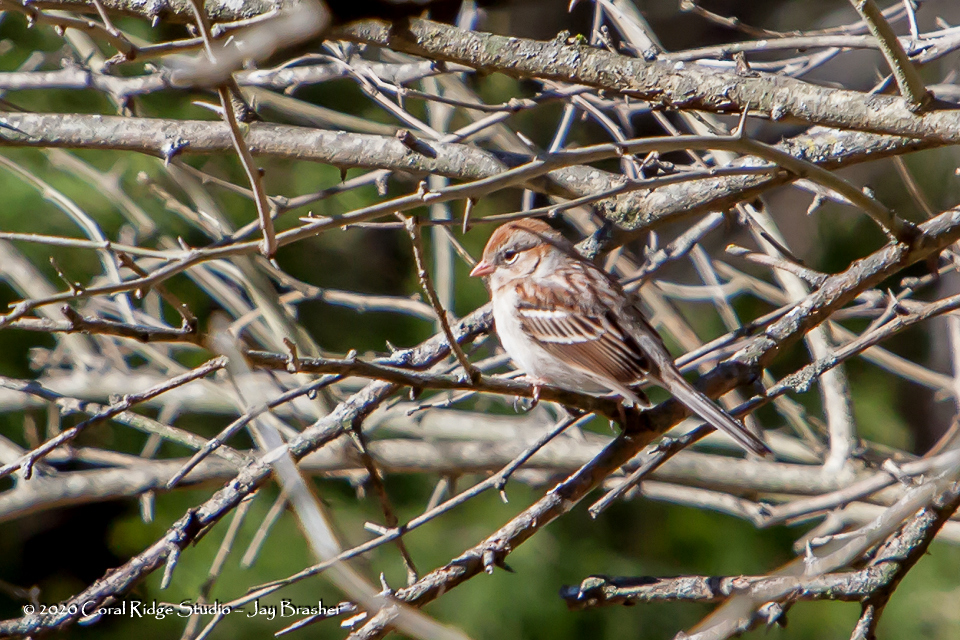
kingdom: Animalia
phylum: Chordata
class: Aves
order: Passeriformes
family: Passerellidae
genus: Spizella
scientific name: Spizella pusilla
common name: Field sparrow
